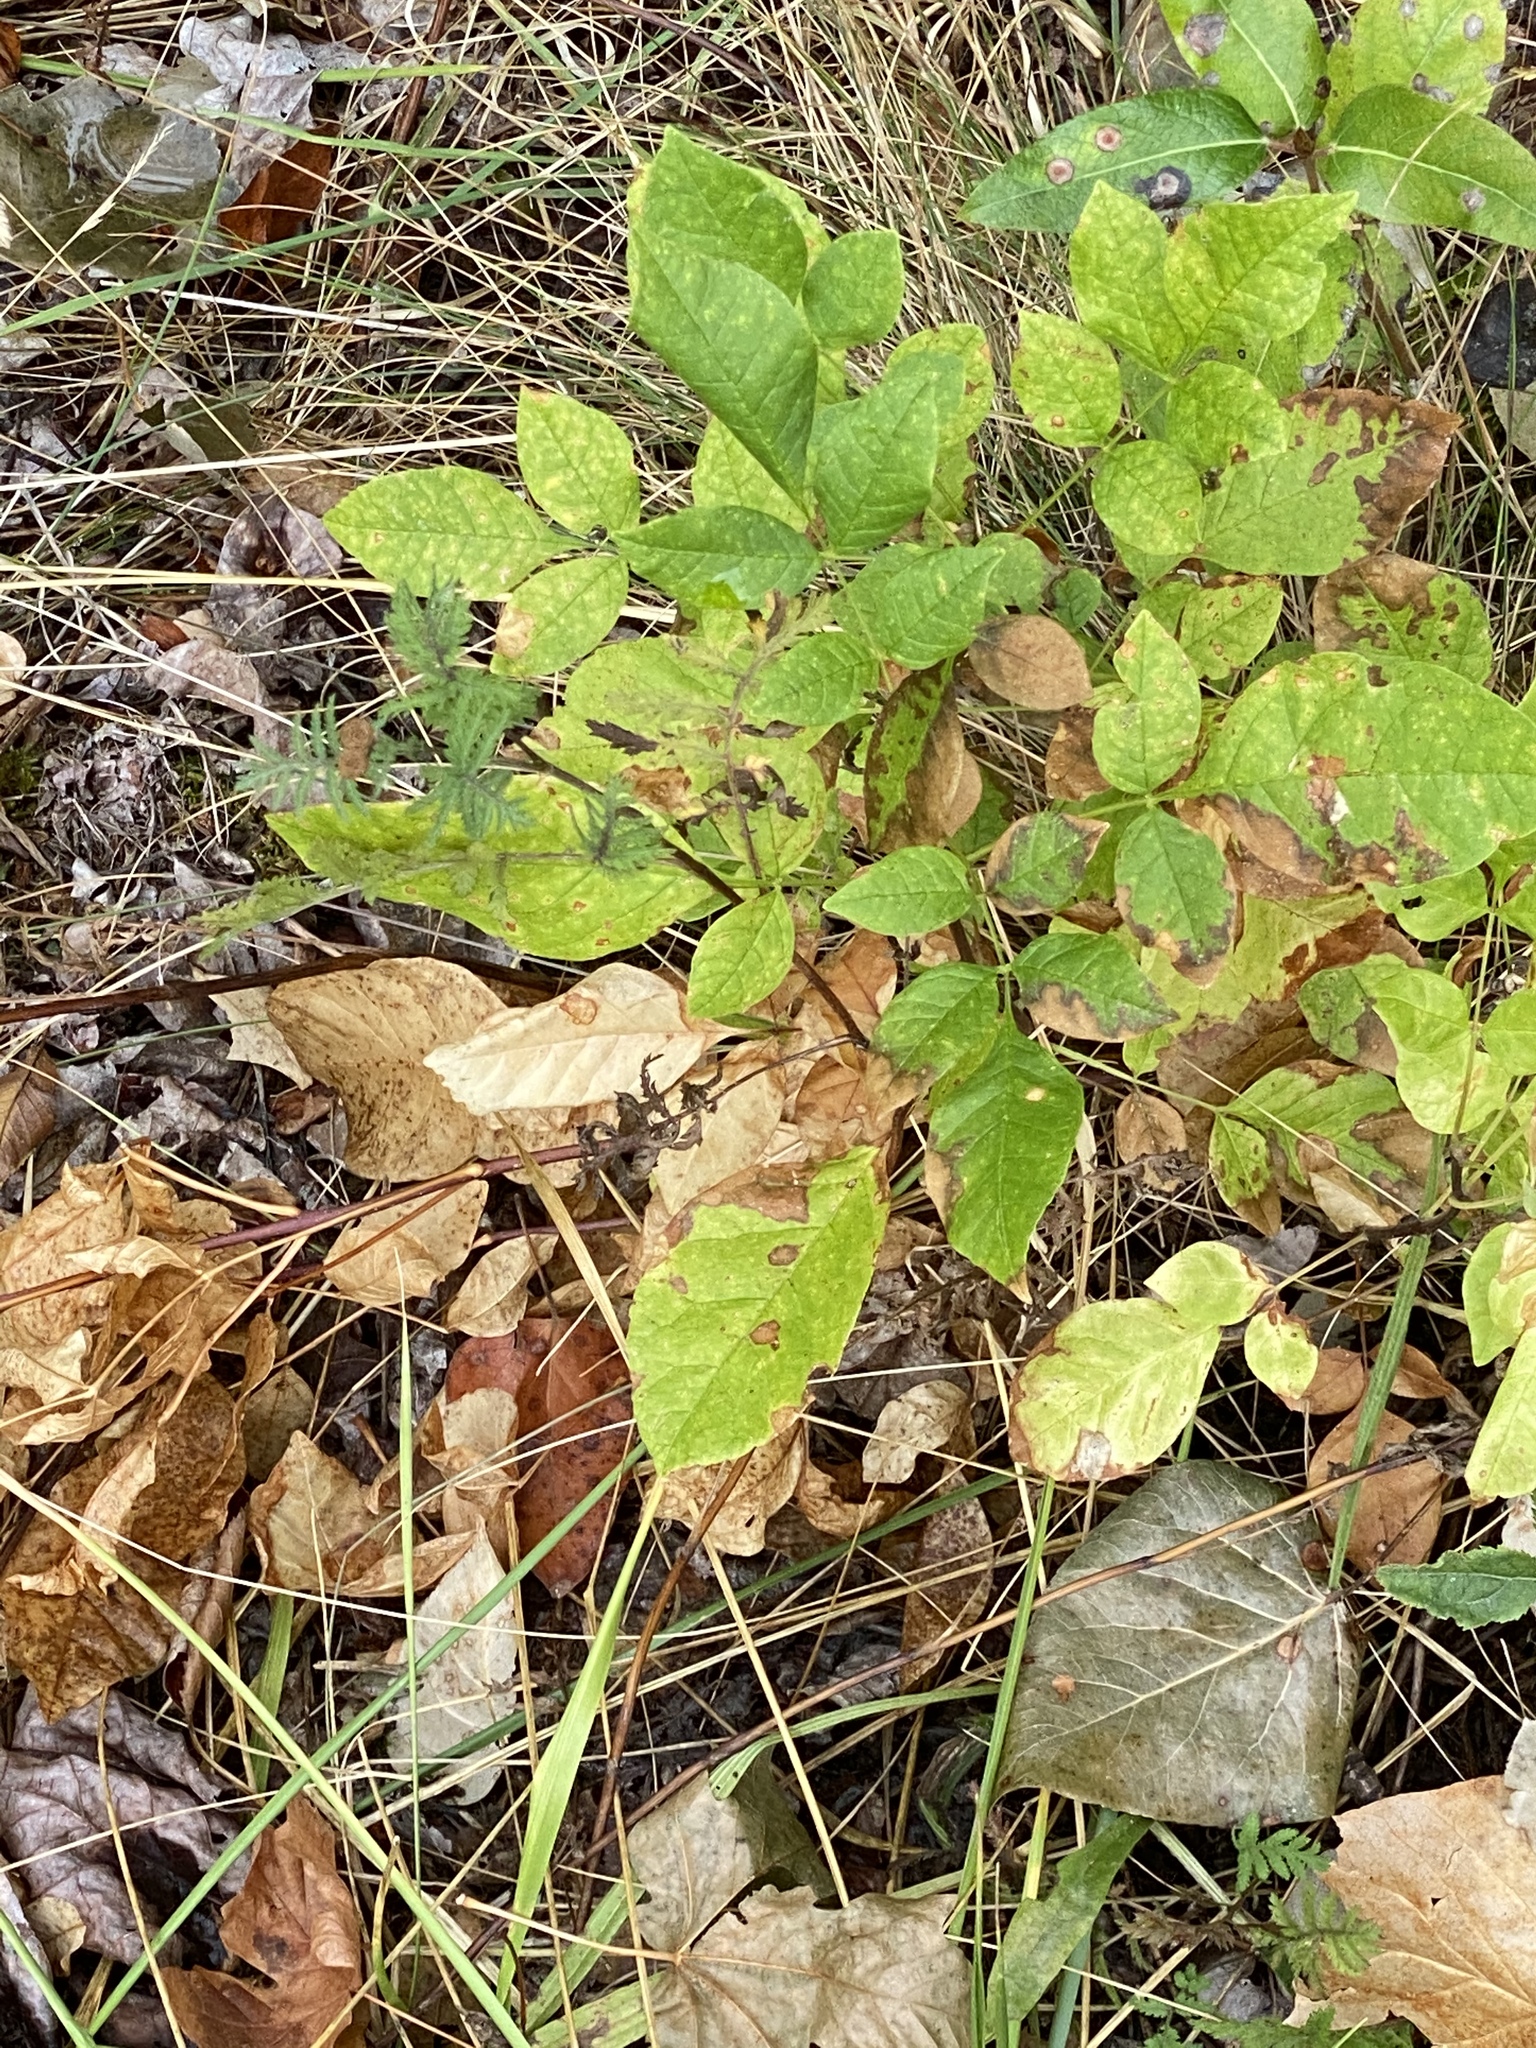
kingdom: Plantae
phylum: Tracheophyta
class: Magnoliopsida
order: Lamiales
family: Oleaceae
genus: Fraxinus
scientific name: Fraxinus latifolia
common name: Oregon ash
